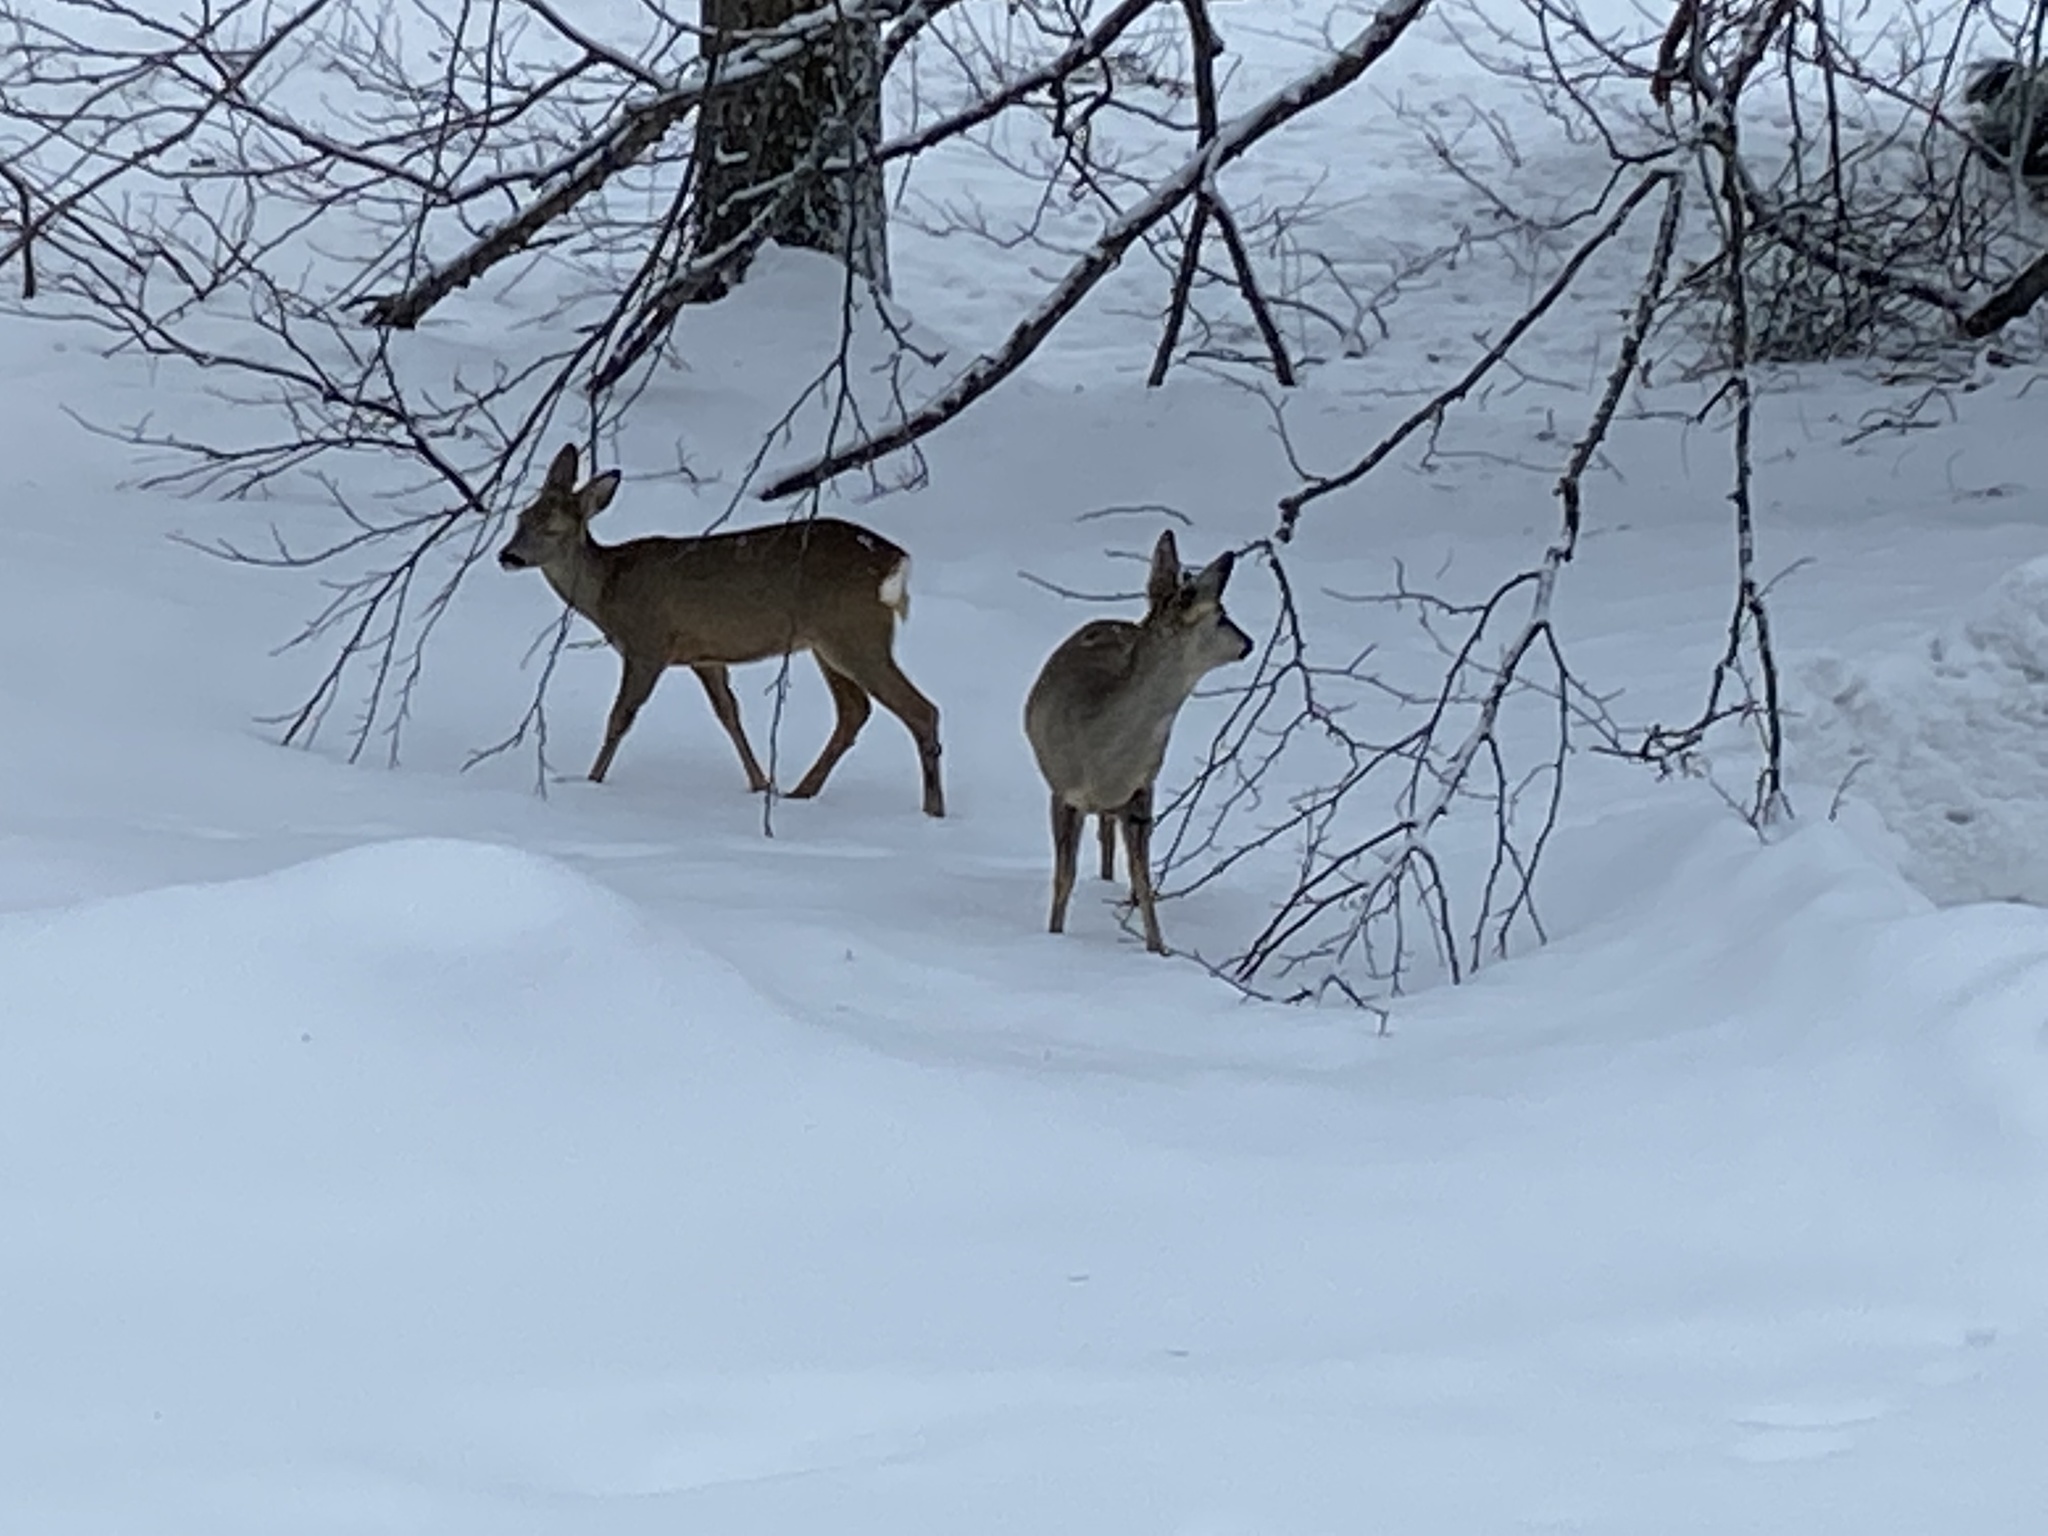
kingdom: Animalia
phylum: Chordata
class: Mammalia
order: Artiodactyla
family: Cervidae
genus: Capreolus
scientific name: Capreolus capreolus
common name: Western roe deer
